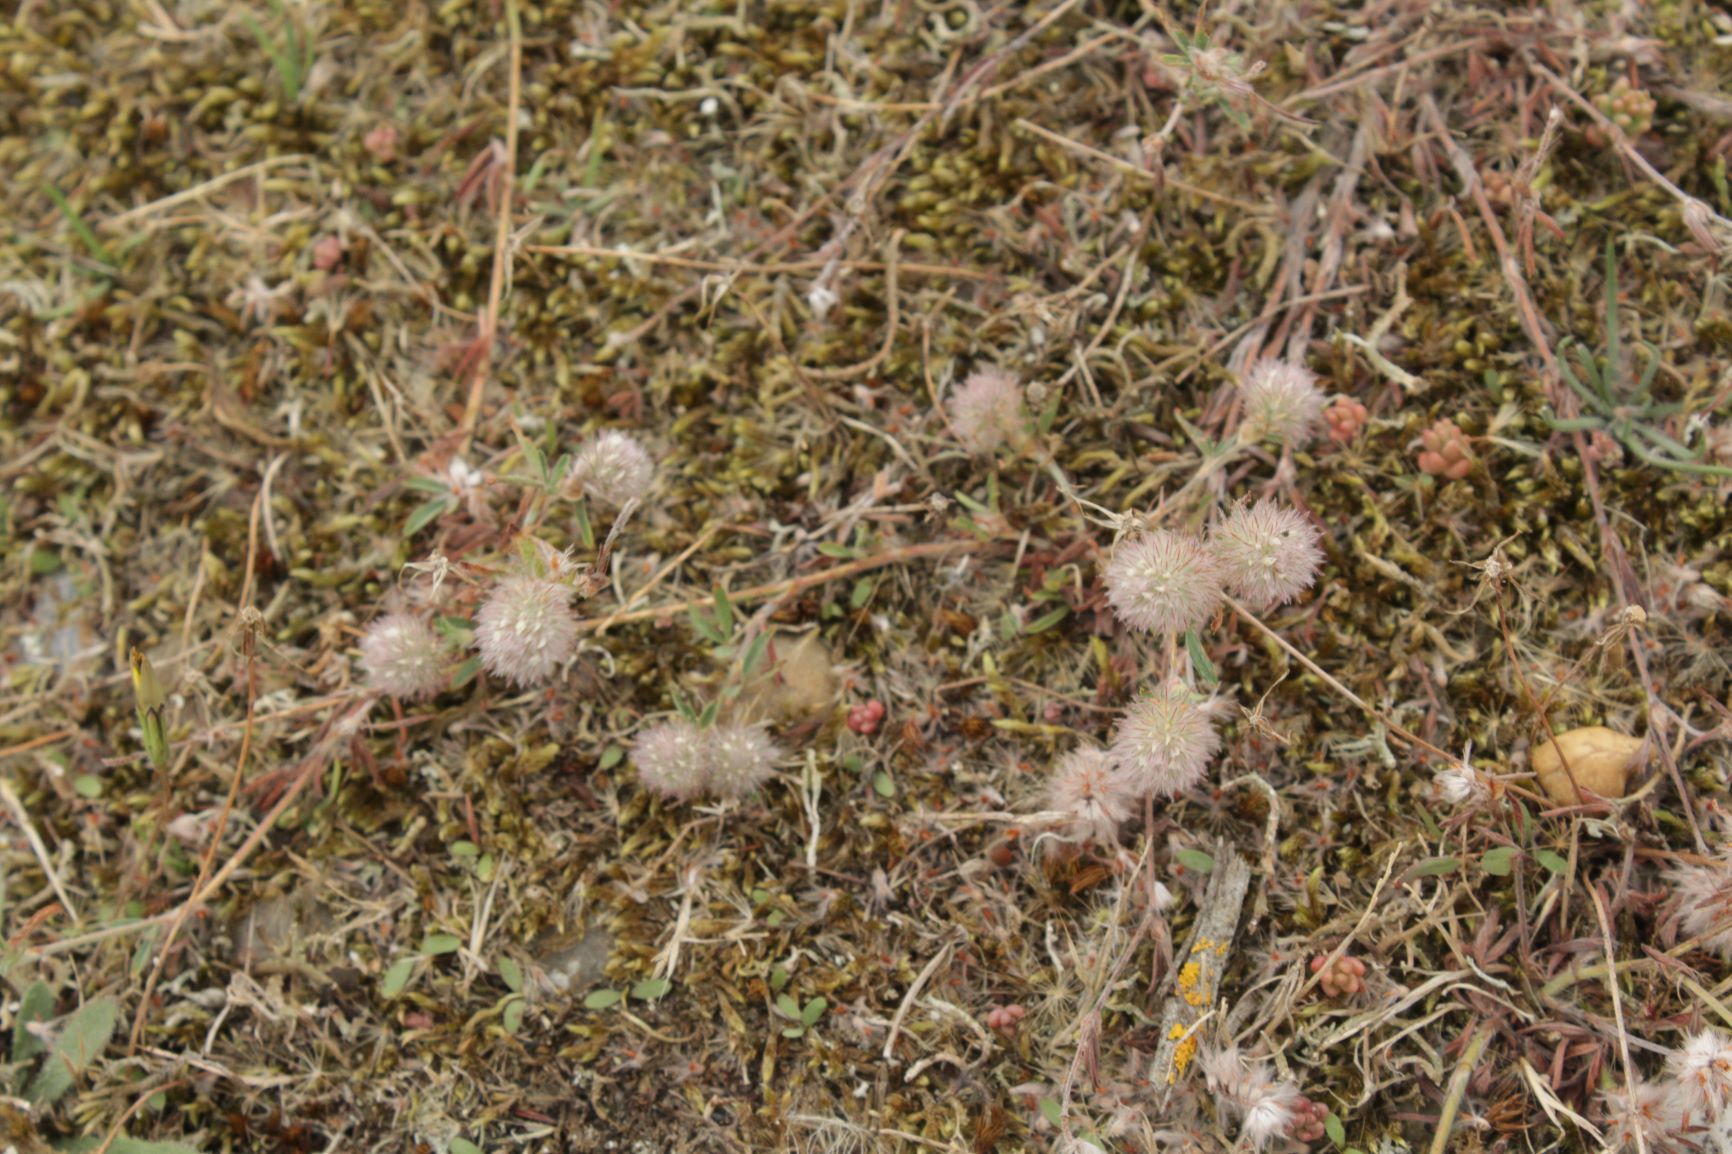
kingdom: Plantae
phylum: Tracheophyta
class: Magnoliopsida
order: Fabales
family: Fabaceae
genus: Trifolium
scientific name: Trifolium arvense
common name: Hare's-foot clover
